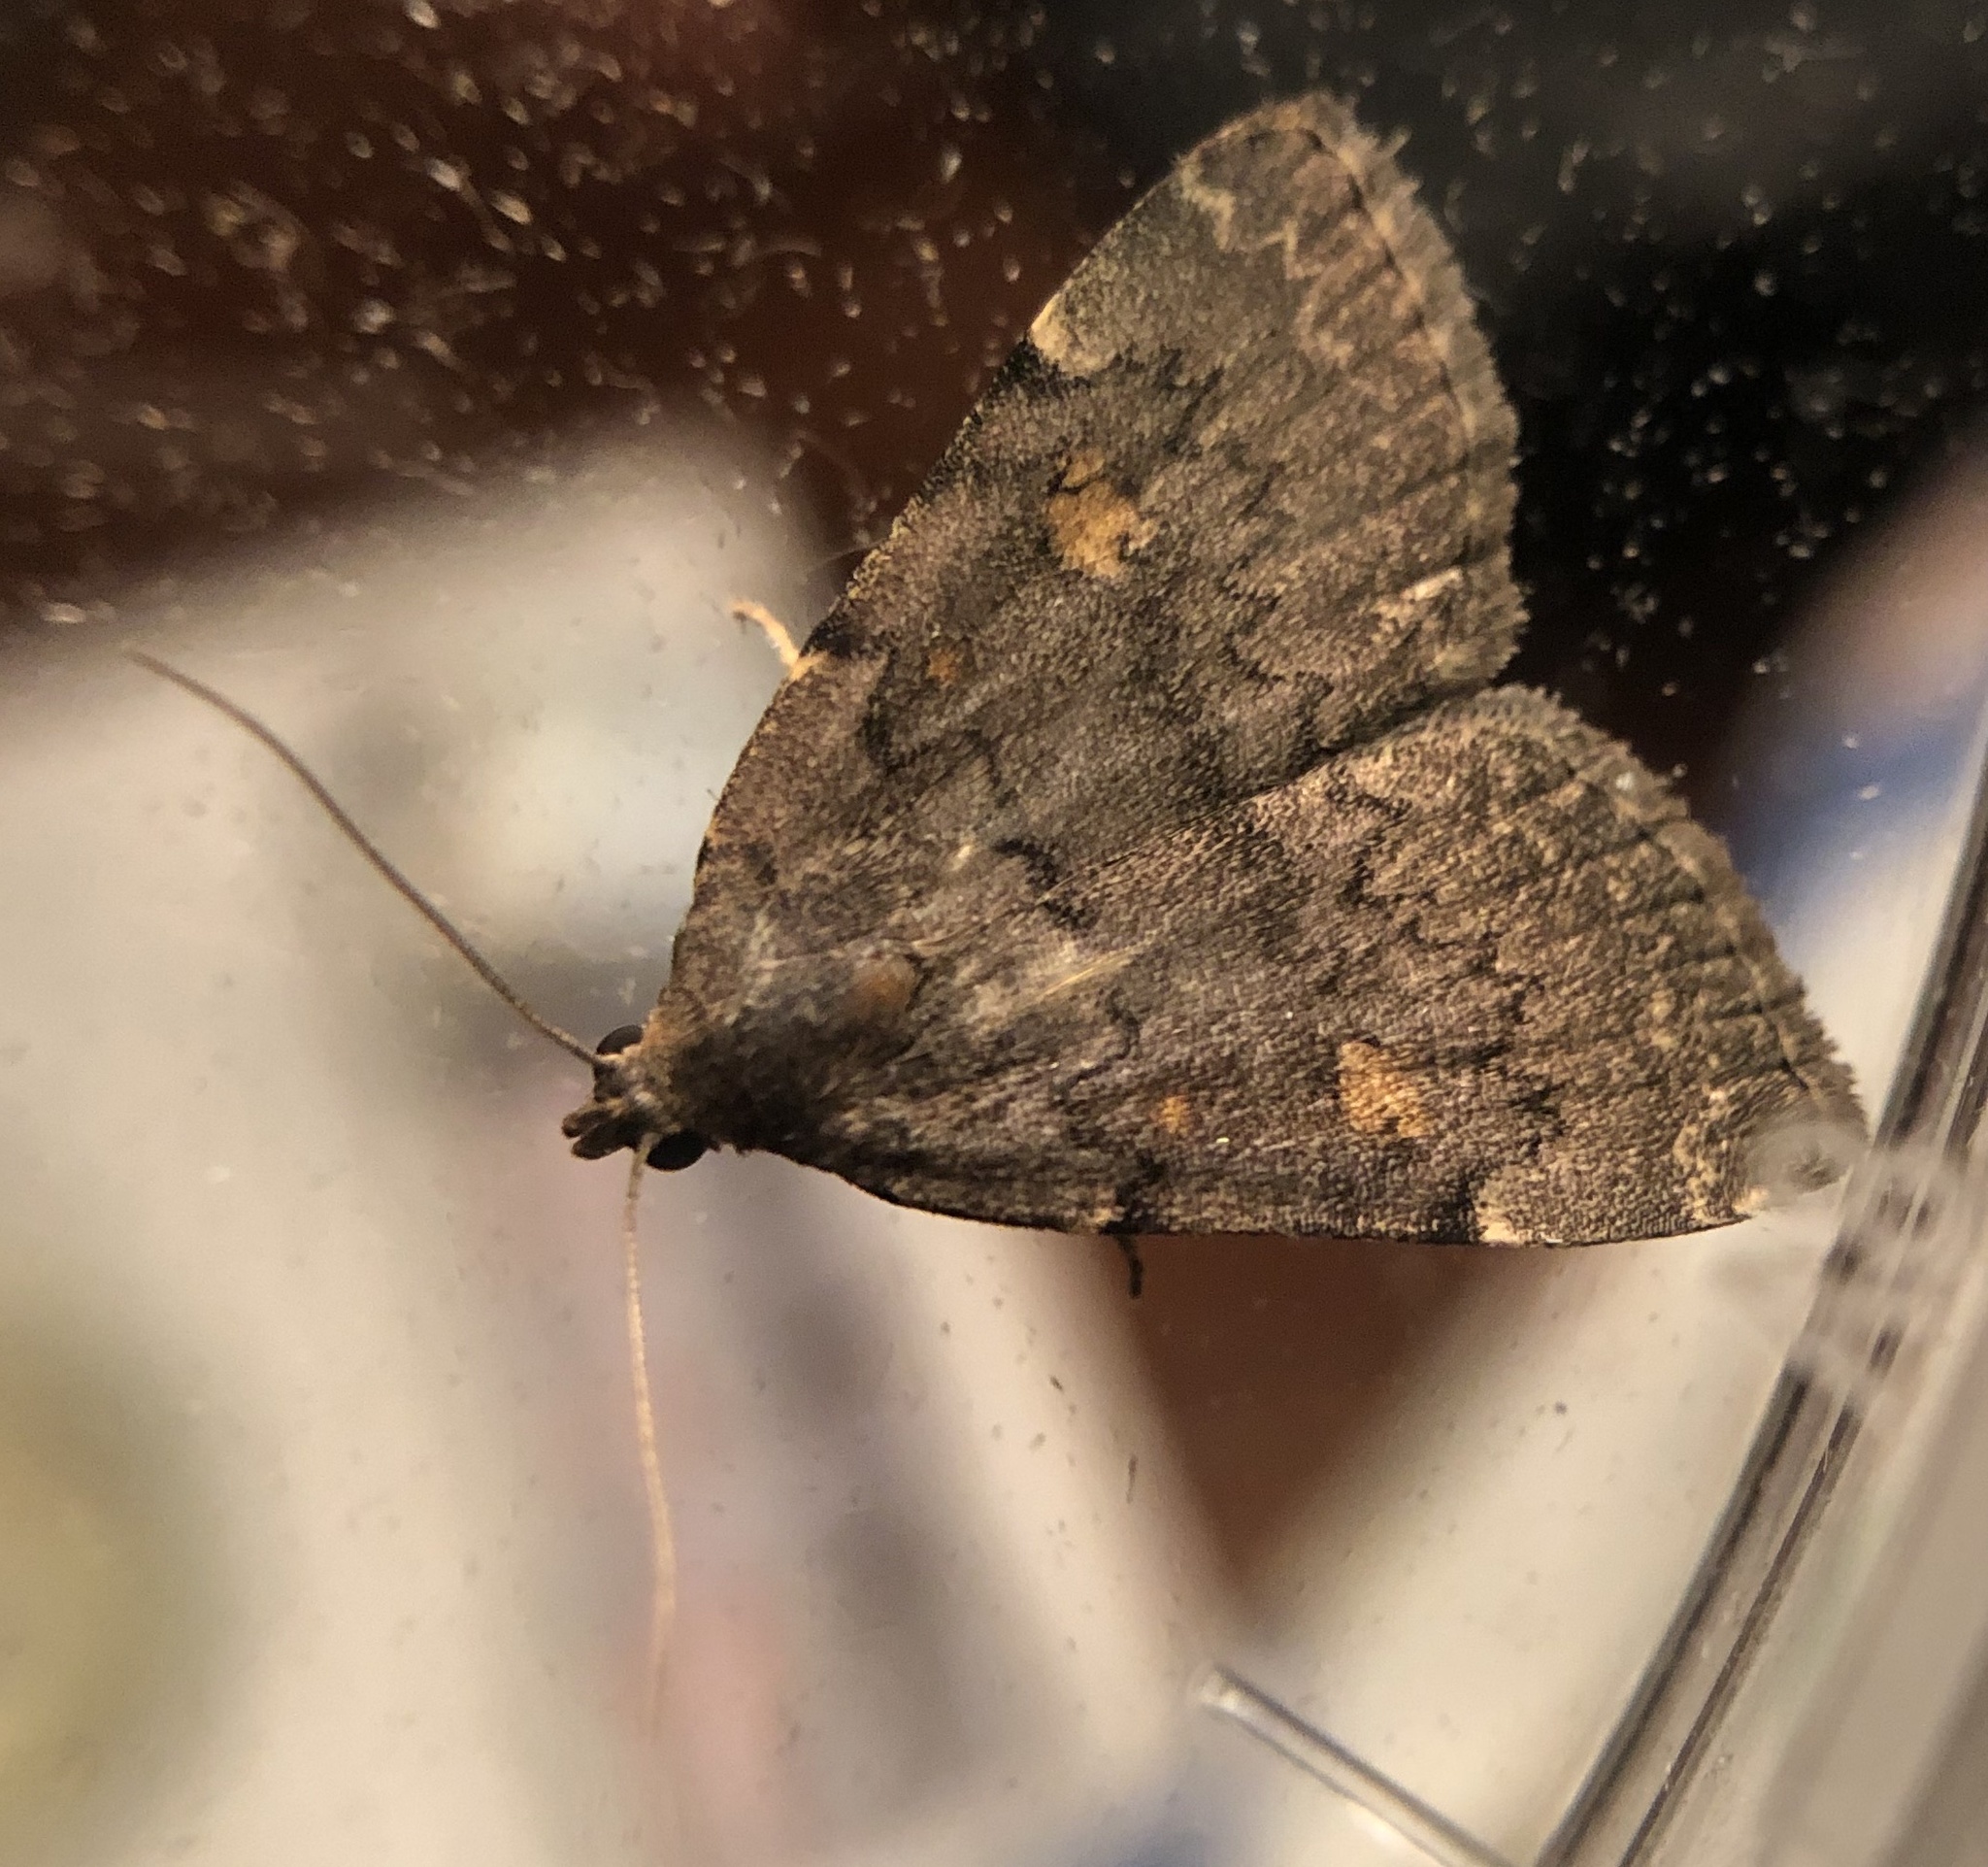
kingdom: Animalia
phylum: Arthropoda
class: Insecta
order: Lepidoptera
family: Erebidae
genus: Idia
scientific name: Idia aemula
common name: Common idia moth
